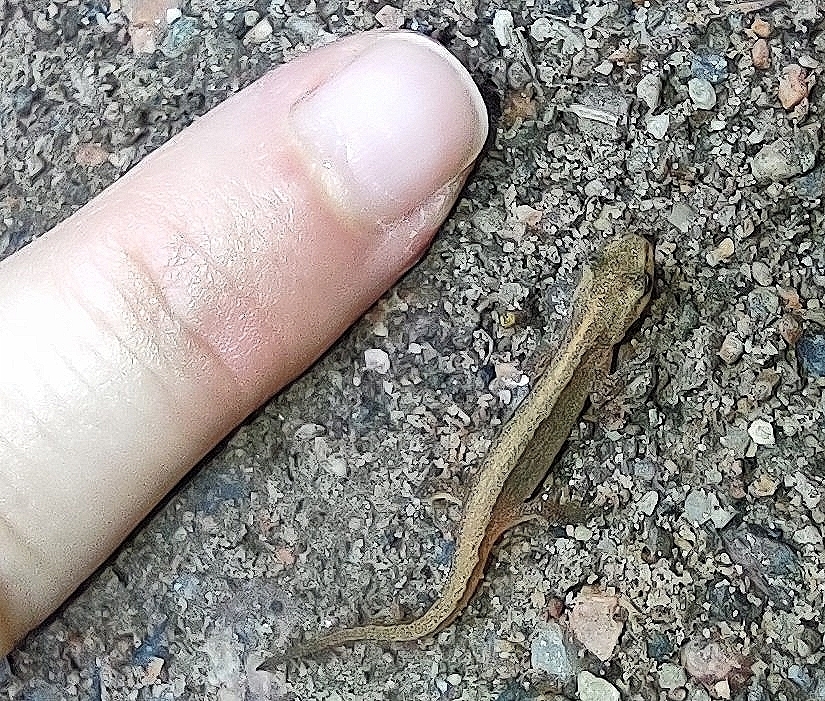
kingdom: Animalia
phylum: Chordata
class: Amphibia
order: Caudata
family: Salamandridae
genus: Lissotriton
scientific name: Lissotriton vulgaris
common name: Smooth newt
